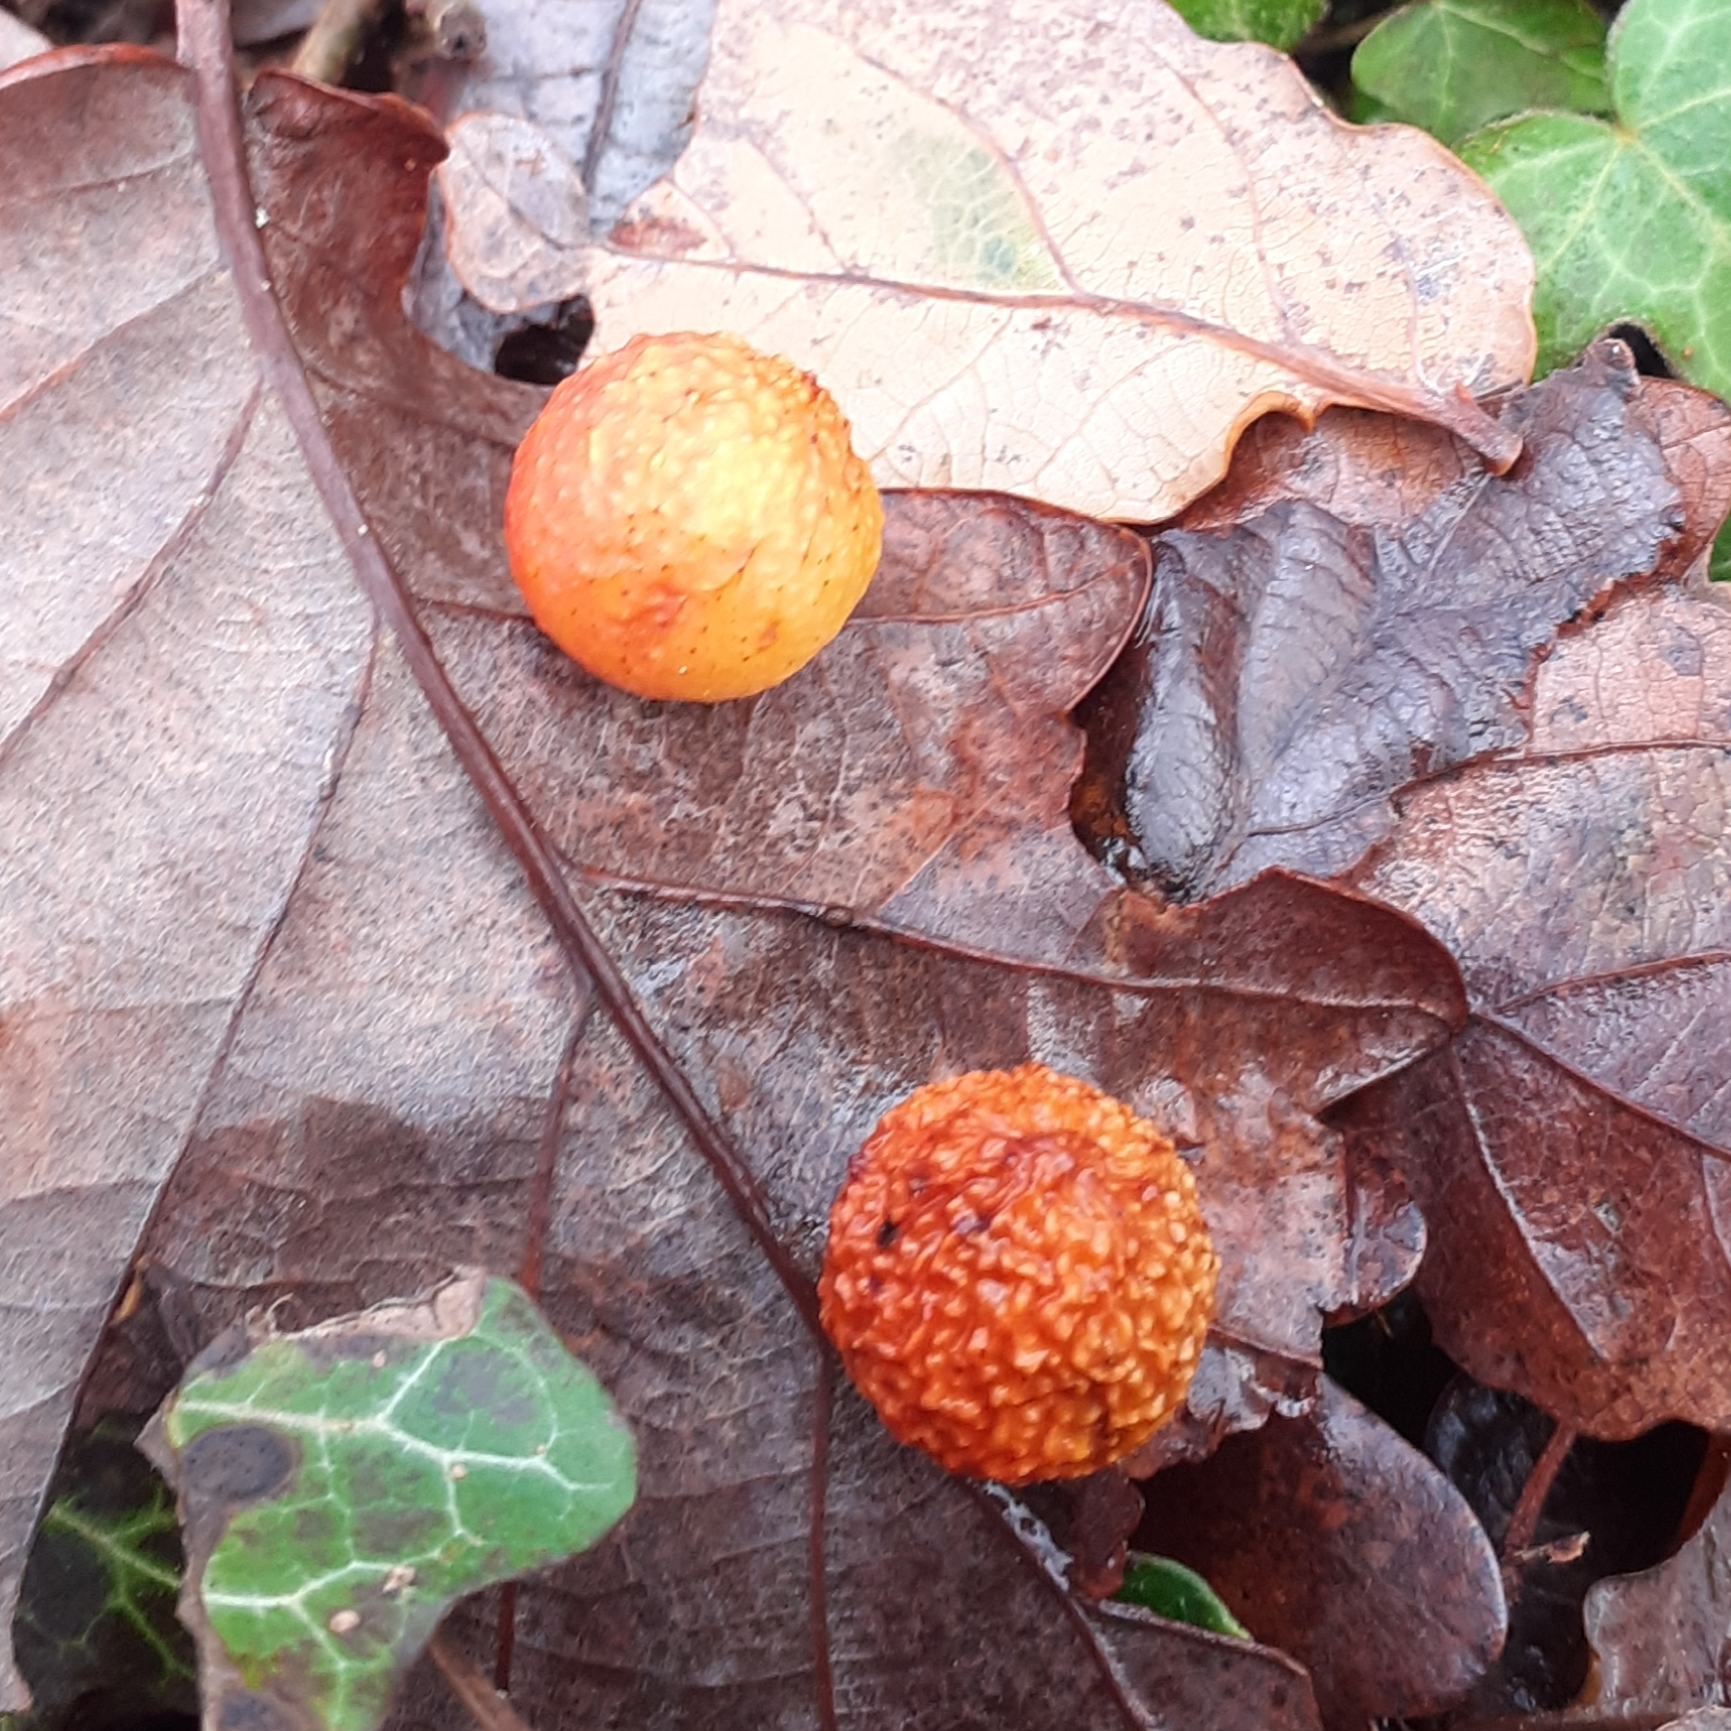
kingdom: Animalia
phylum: Arthropoda
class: Insecta
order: Hymenoptera
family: Cynipidae
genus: Cynips
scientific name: Cynips quercusfolii
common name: Cherry gall
